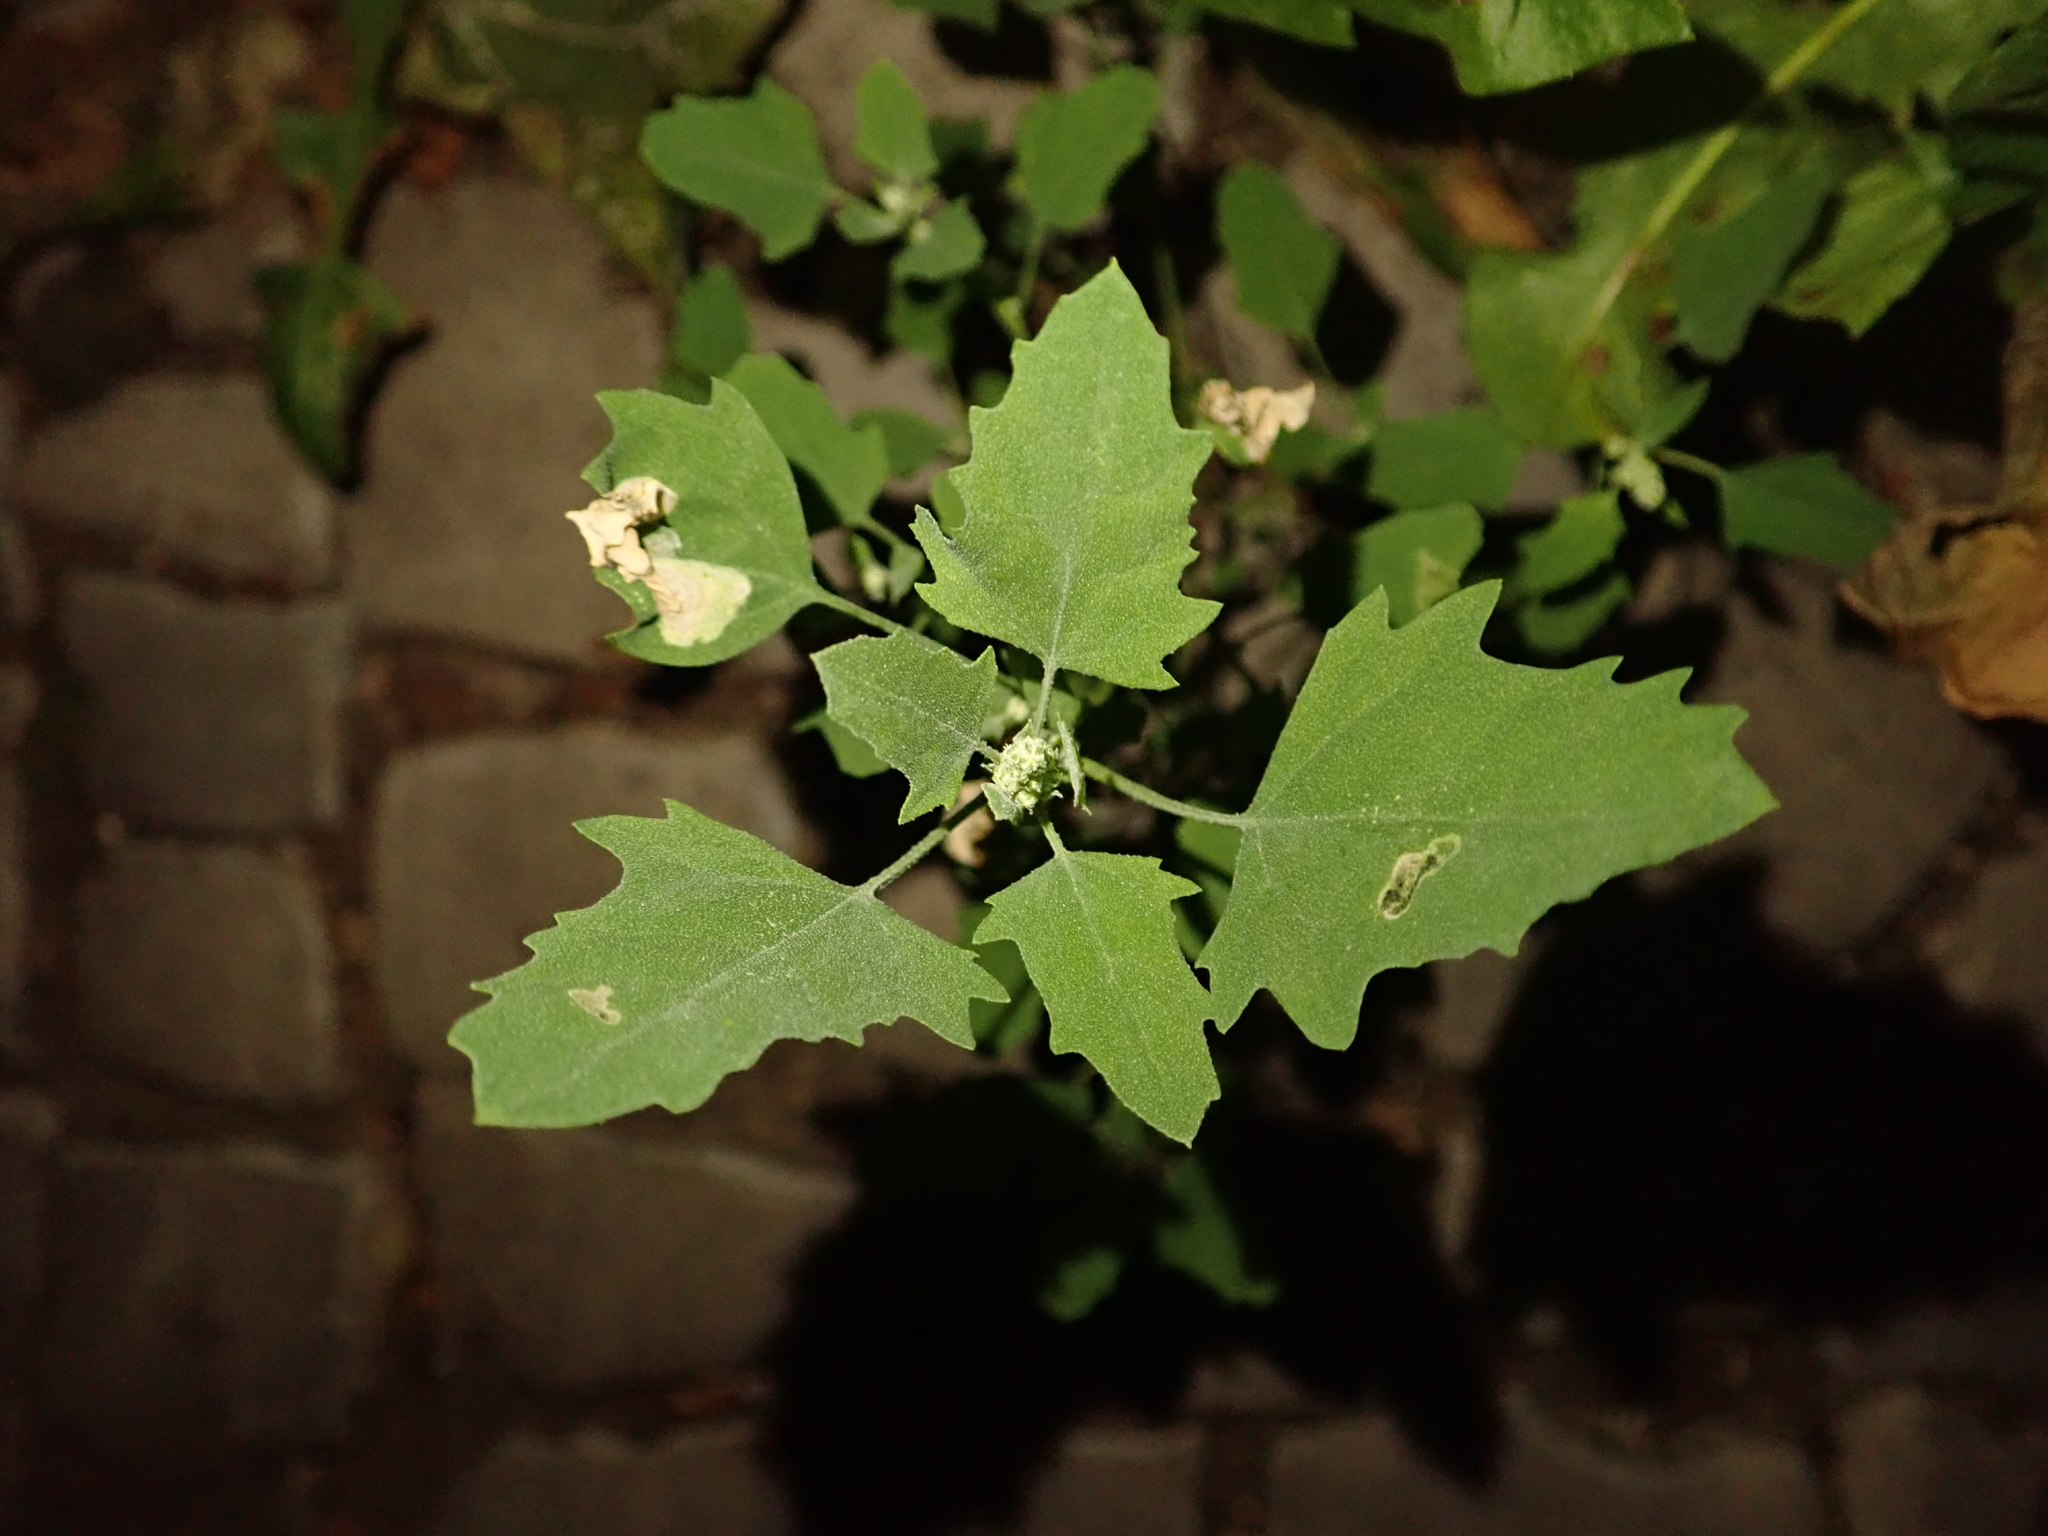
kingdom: Plantae
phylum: Tracheophyta
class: Magnoliopsida
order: Caryophyllales
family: Amaranthaceae
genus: Chenopodium
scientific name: Chenopodium album
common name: Fat-hen
